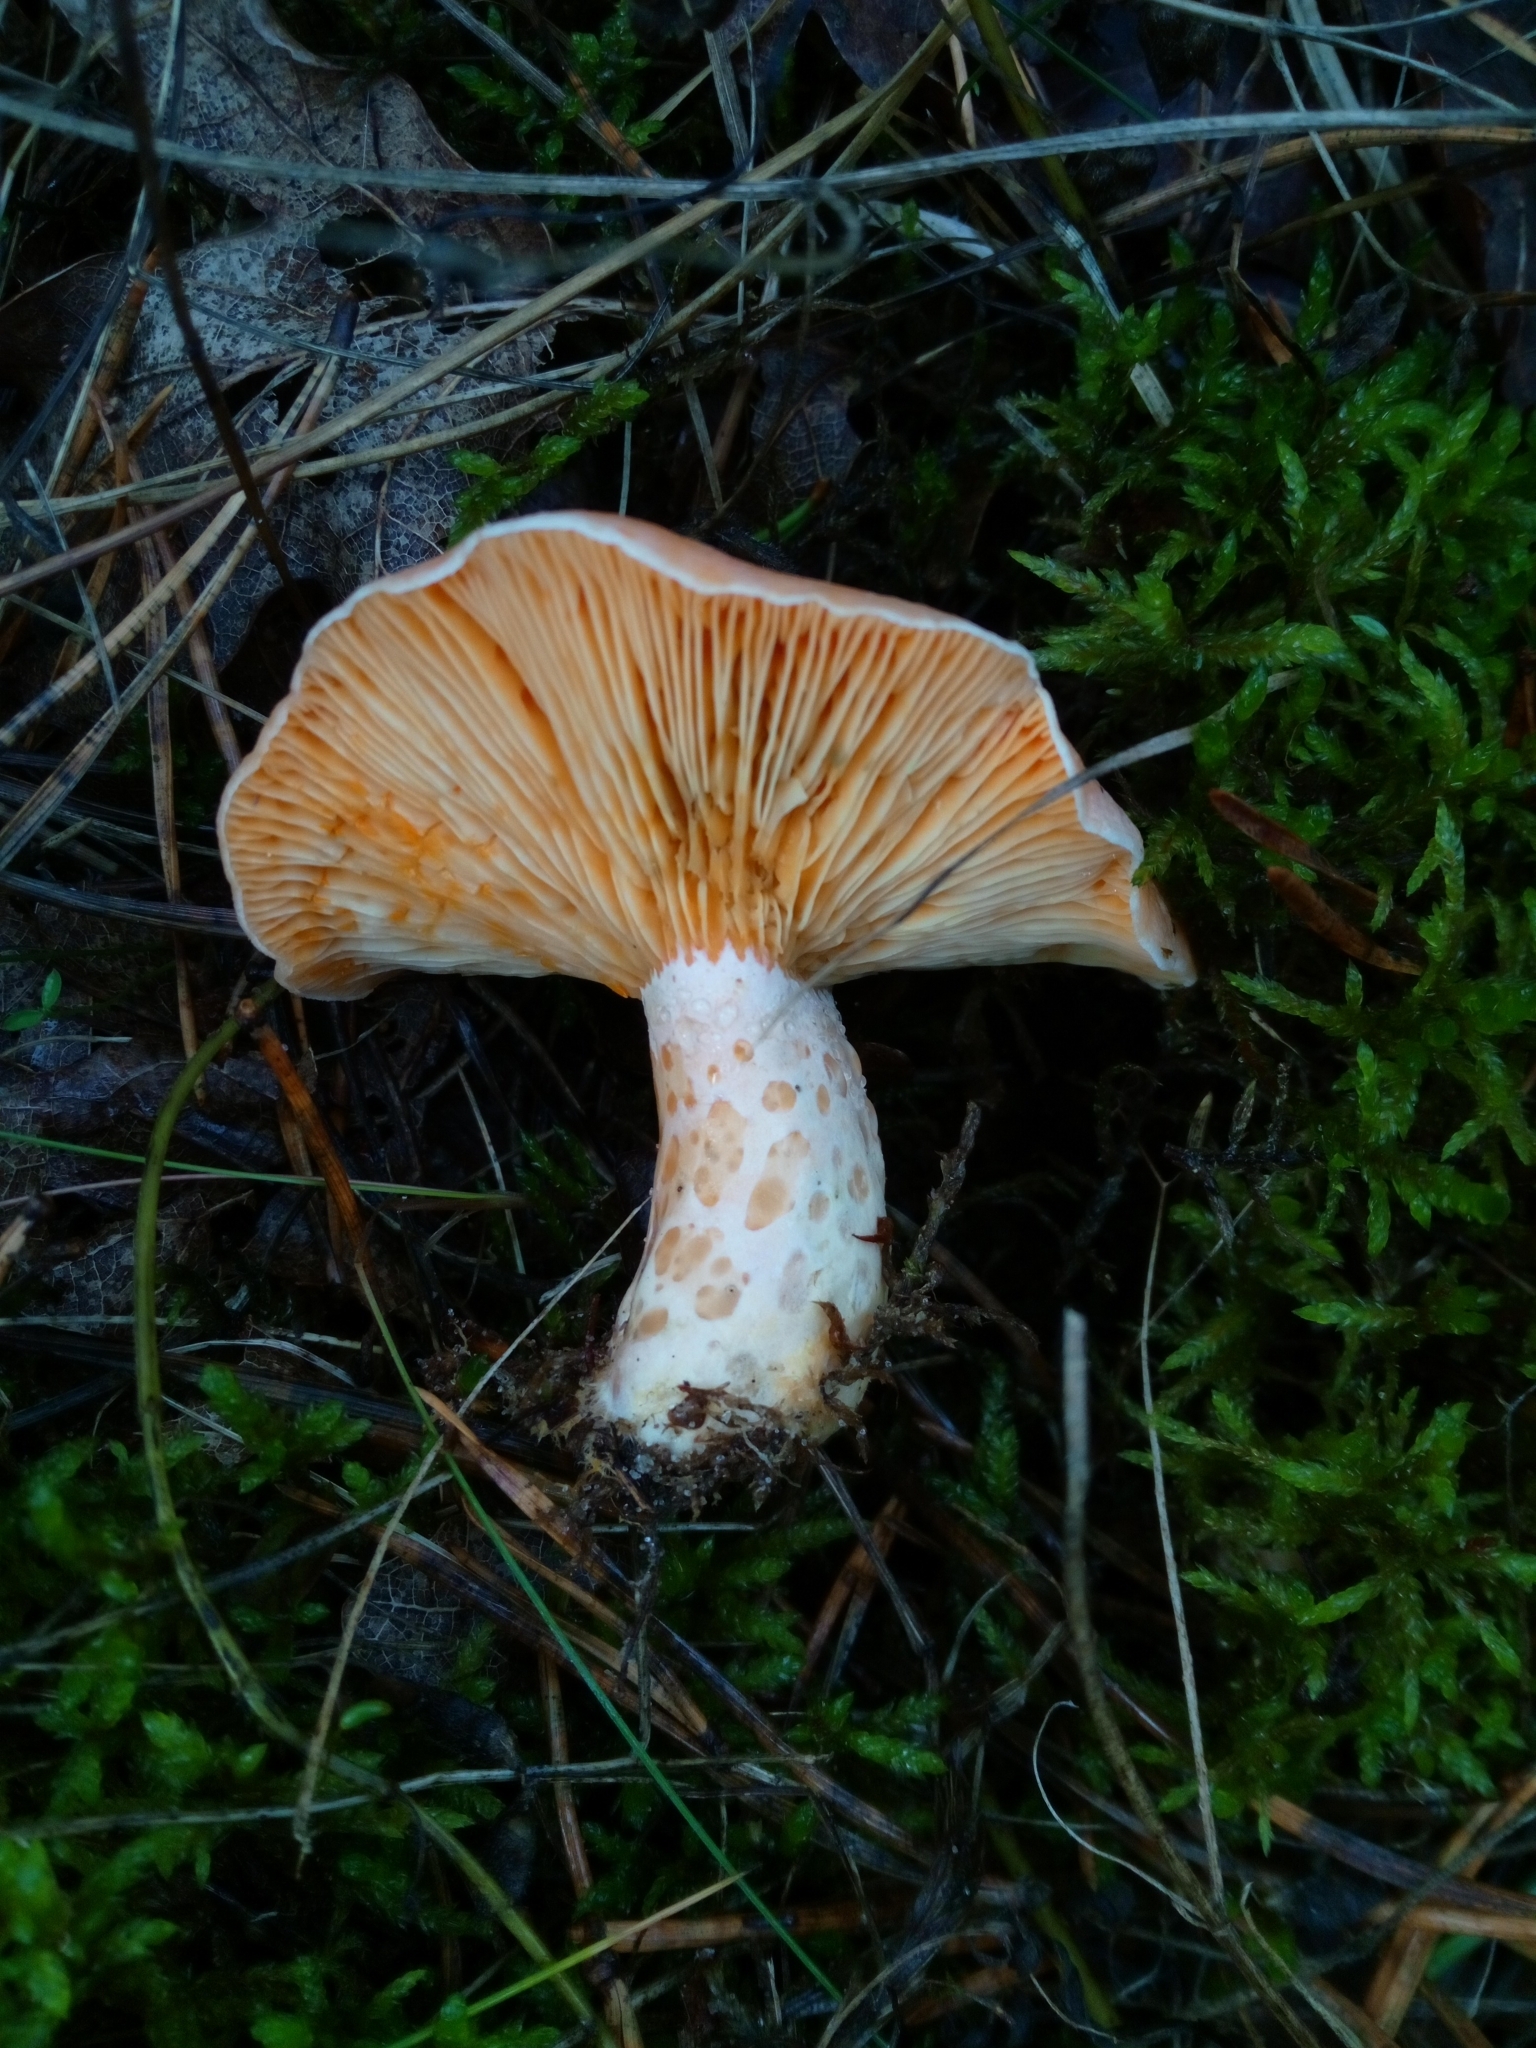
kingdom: Fungi
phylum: Basidiomycota
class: Agaricomycetes
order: Russulales
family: Russulaceae
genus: Lactarius
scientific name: Lactarius deliciosus
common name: Saffron milk-cap
